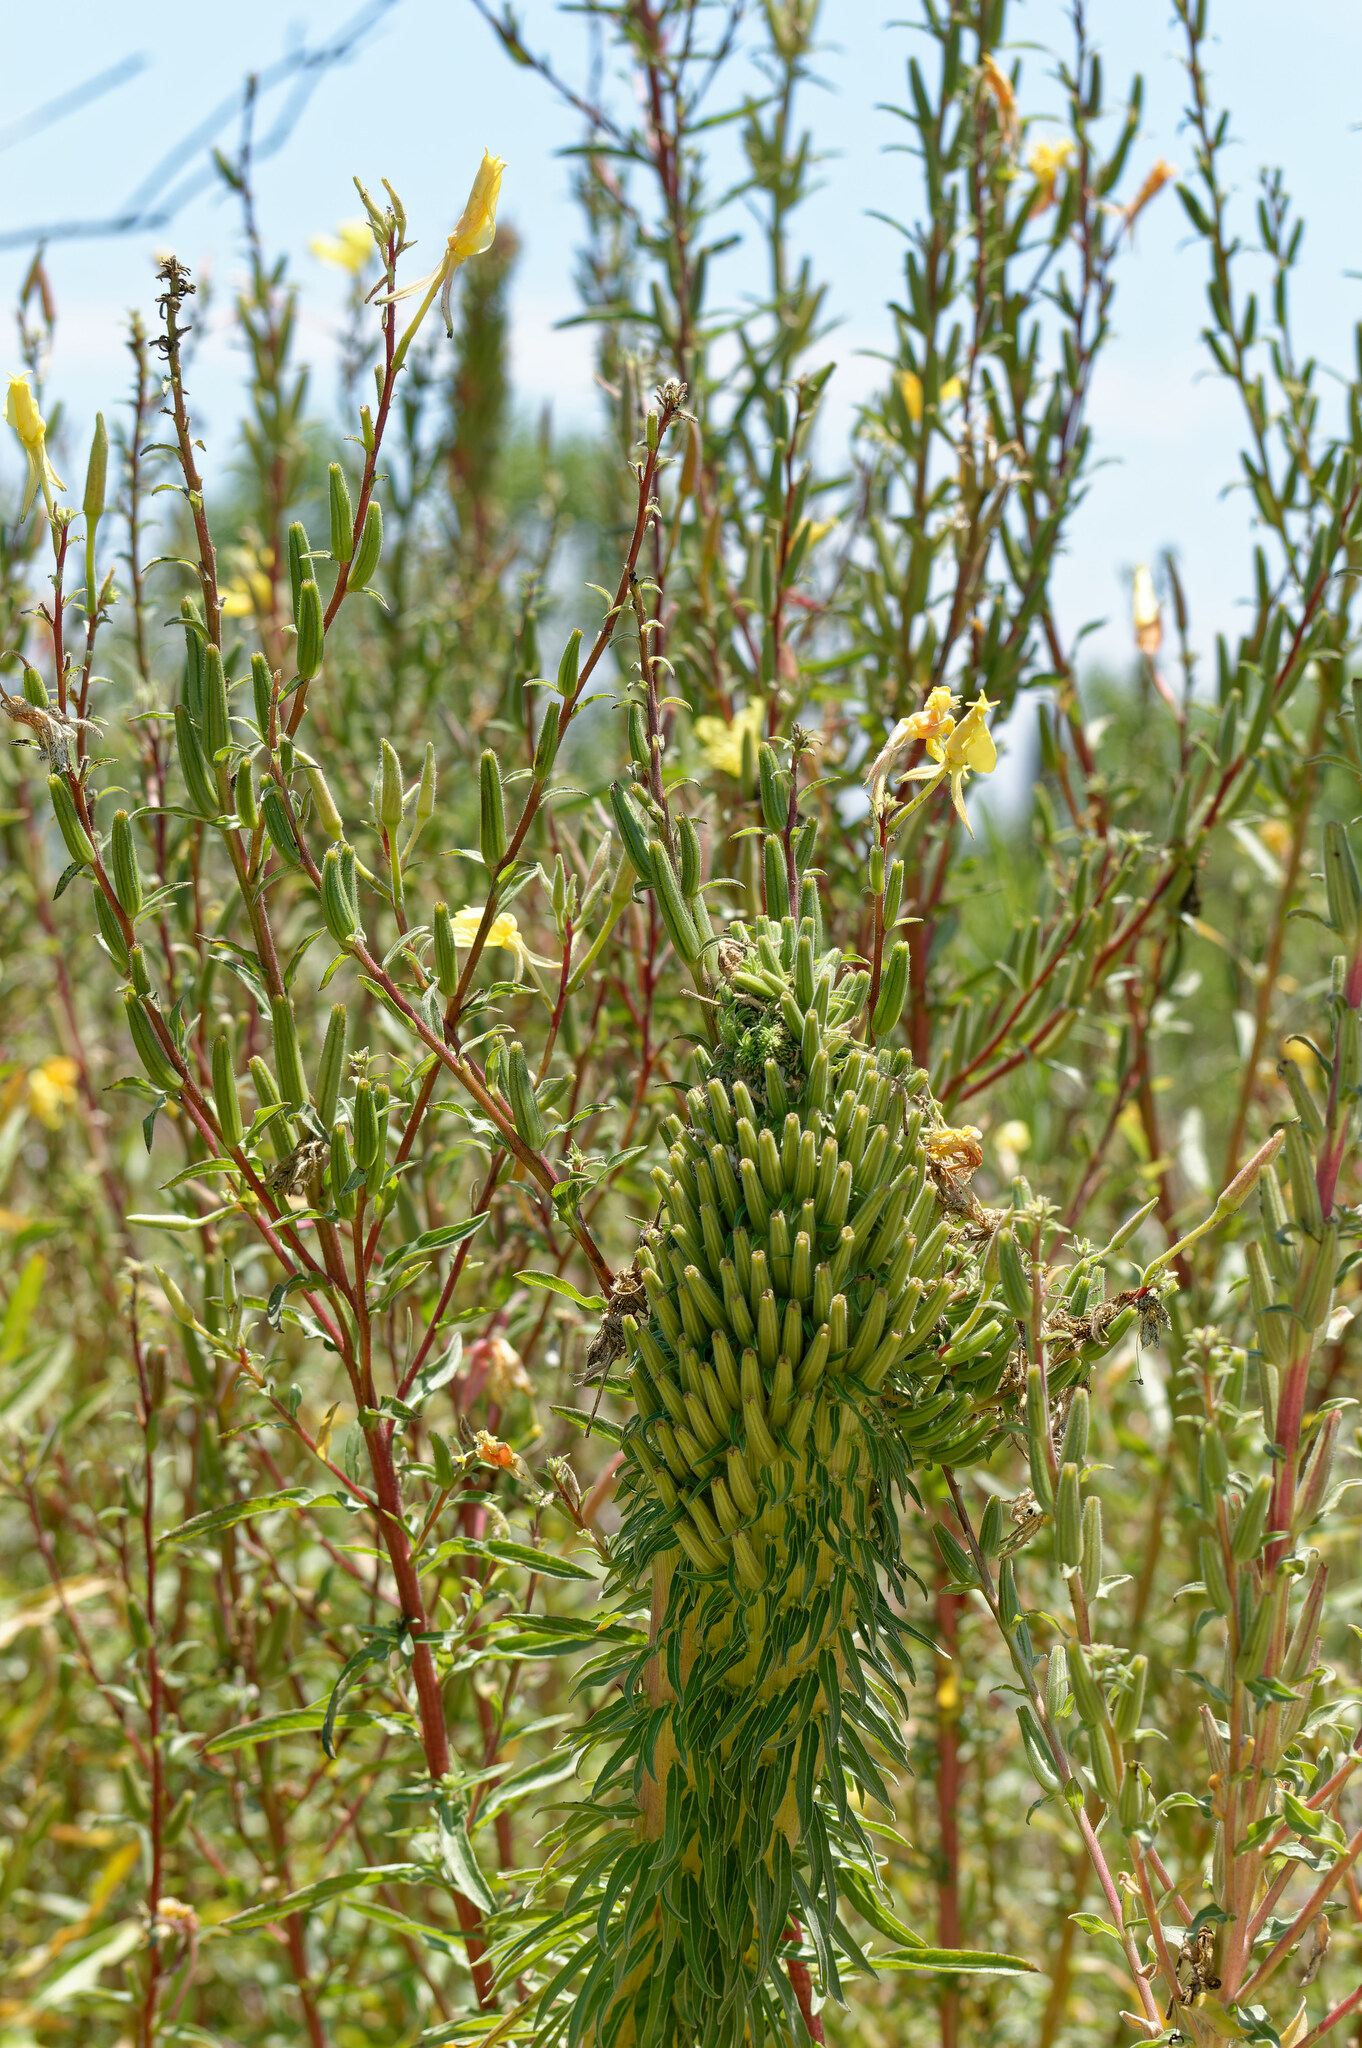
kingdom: Plantae
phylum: Tracheophyta
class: Magnoliopsida
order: Myrtales
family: Onagraceae
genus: Oenothera
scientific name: Oenothera elata
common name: Hooker's evening-primrose
